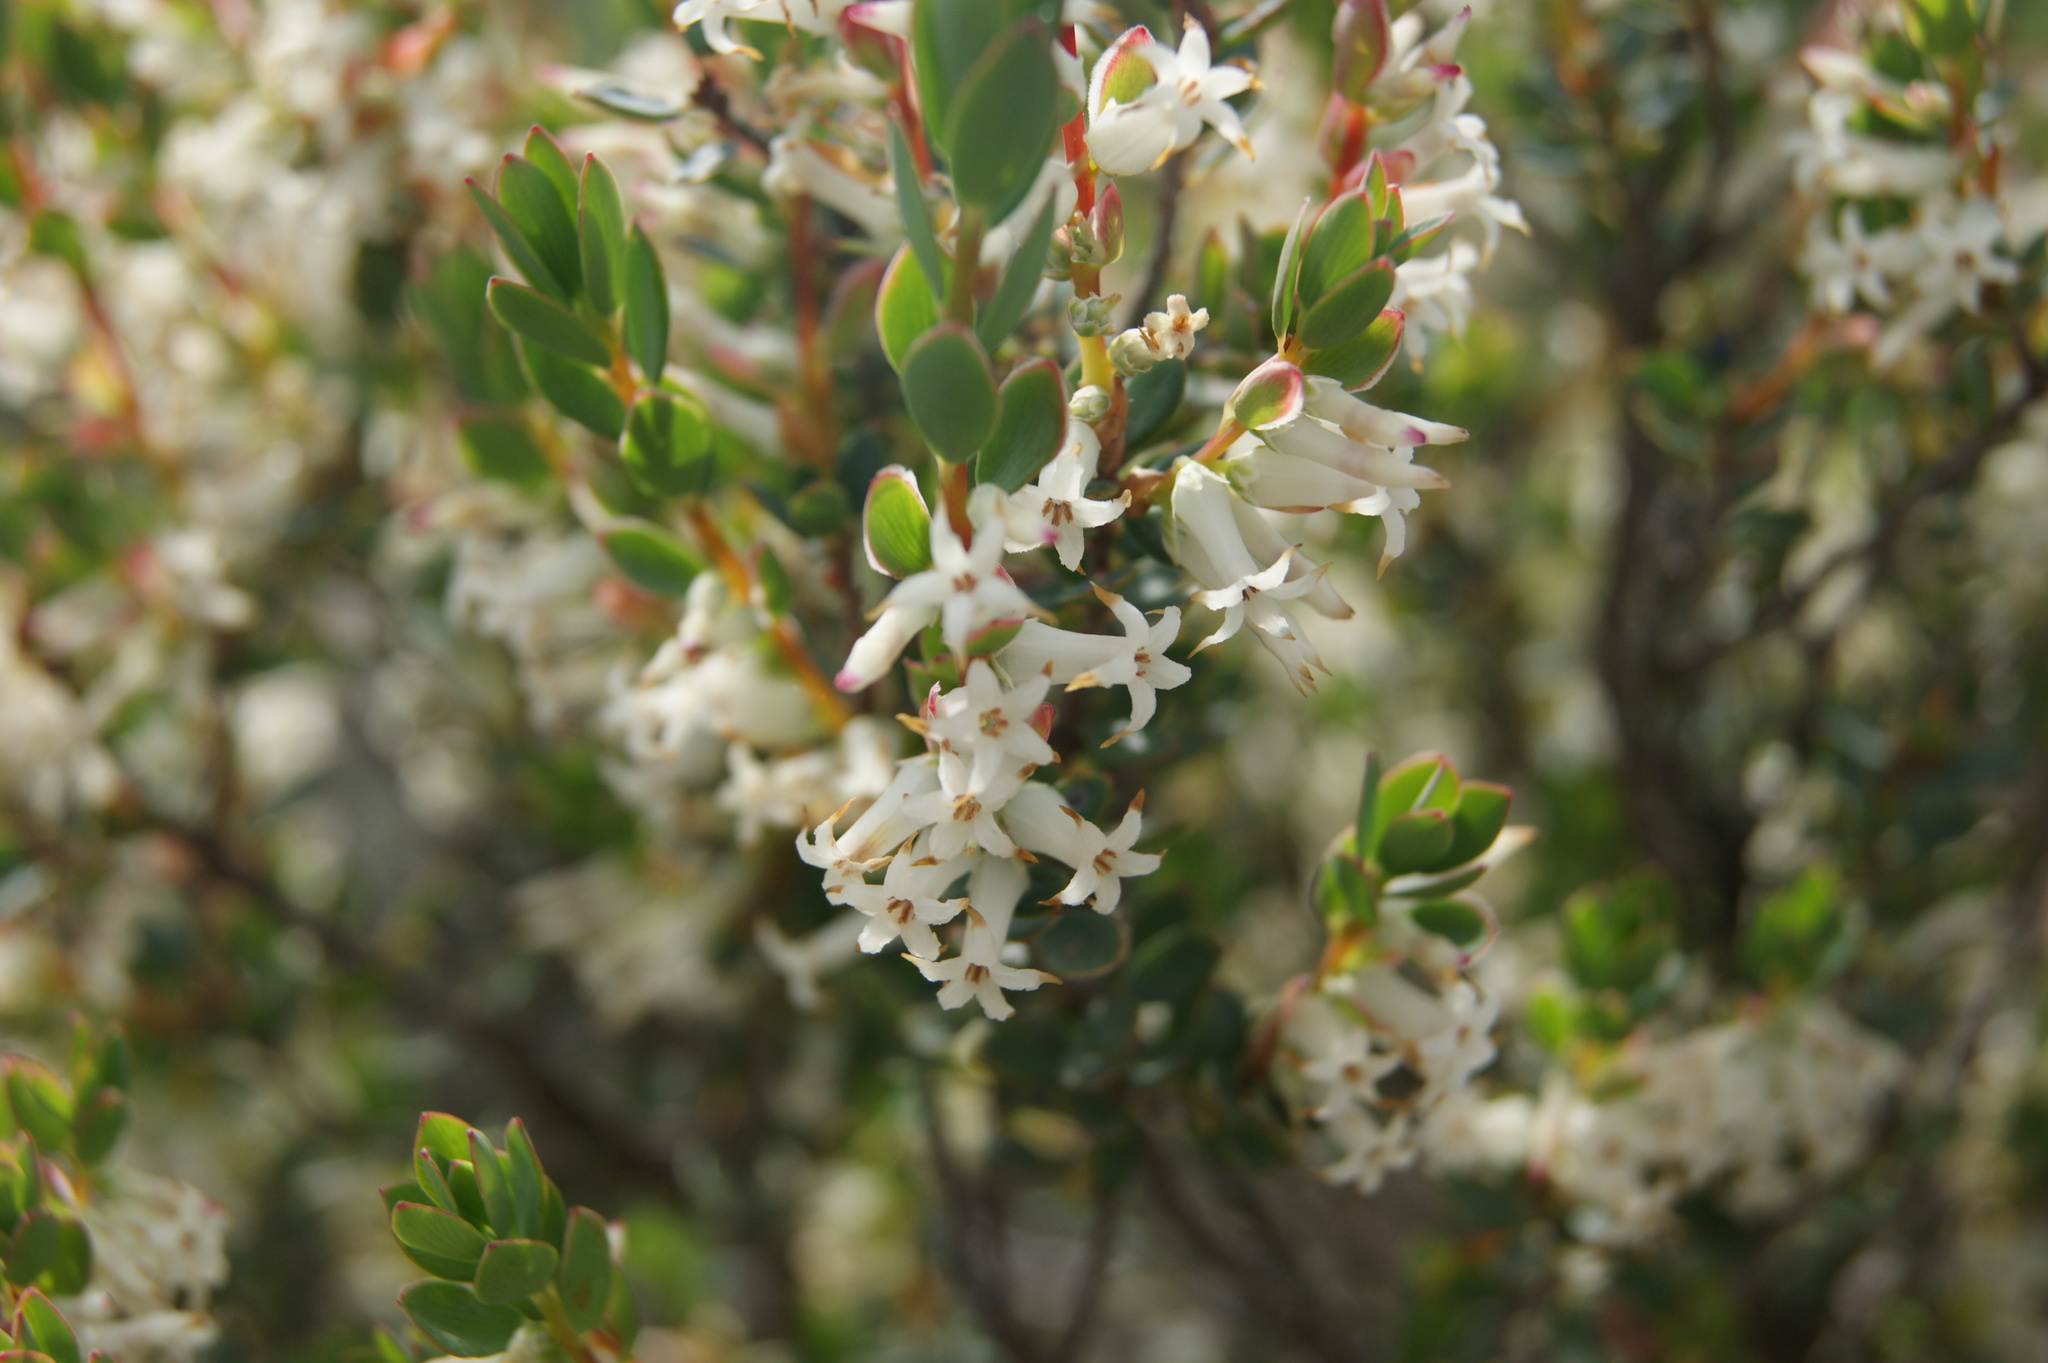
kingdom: Plantae
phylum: Tracheophyta
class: Magnoliopsida
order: Ericales
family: Ericaceae
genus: Brachyloma
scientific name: Brachyloma daphnoides
